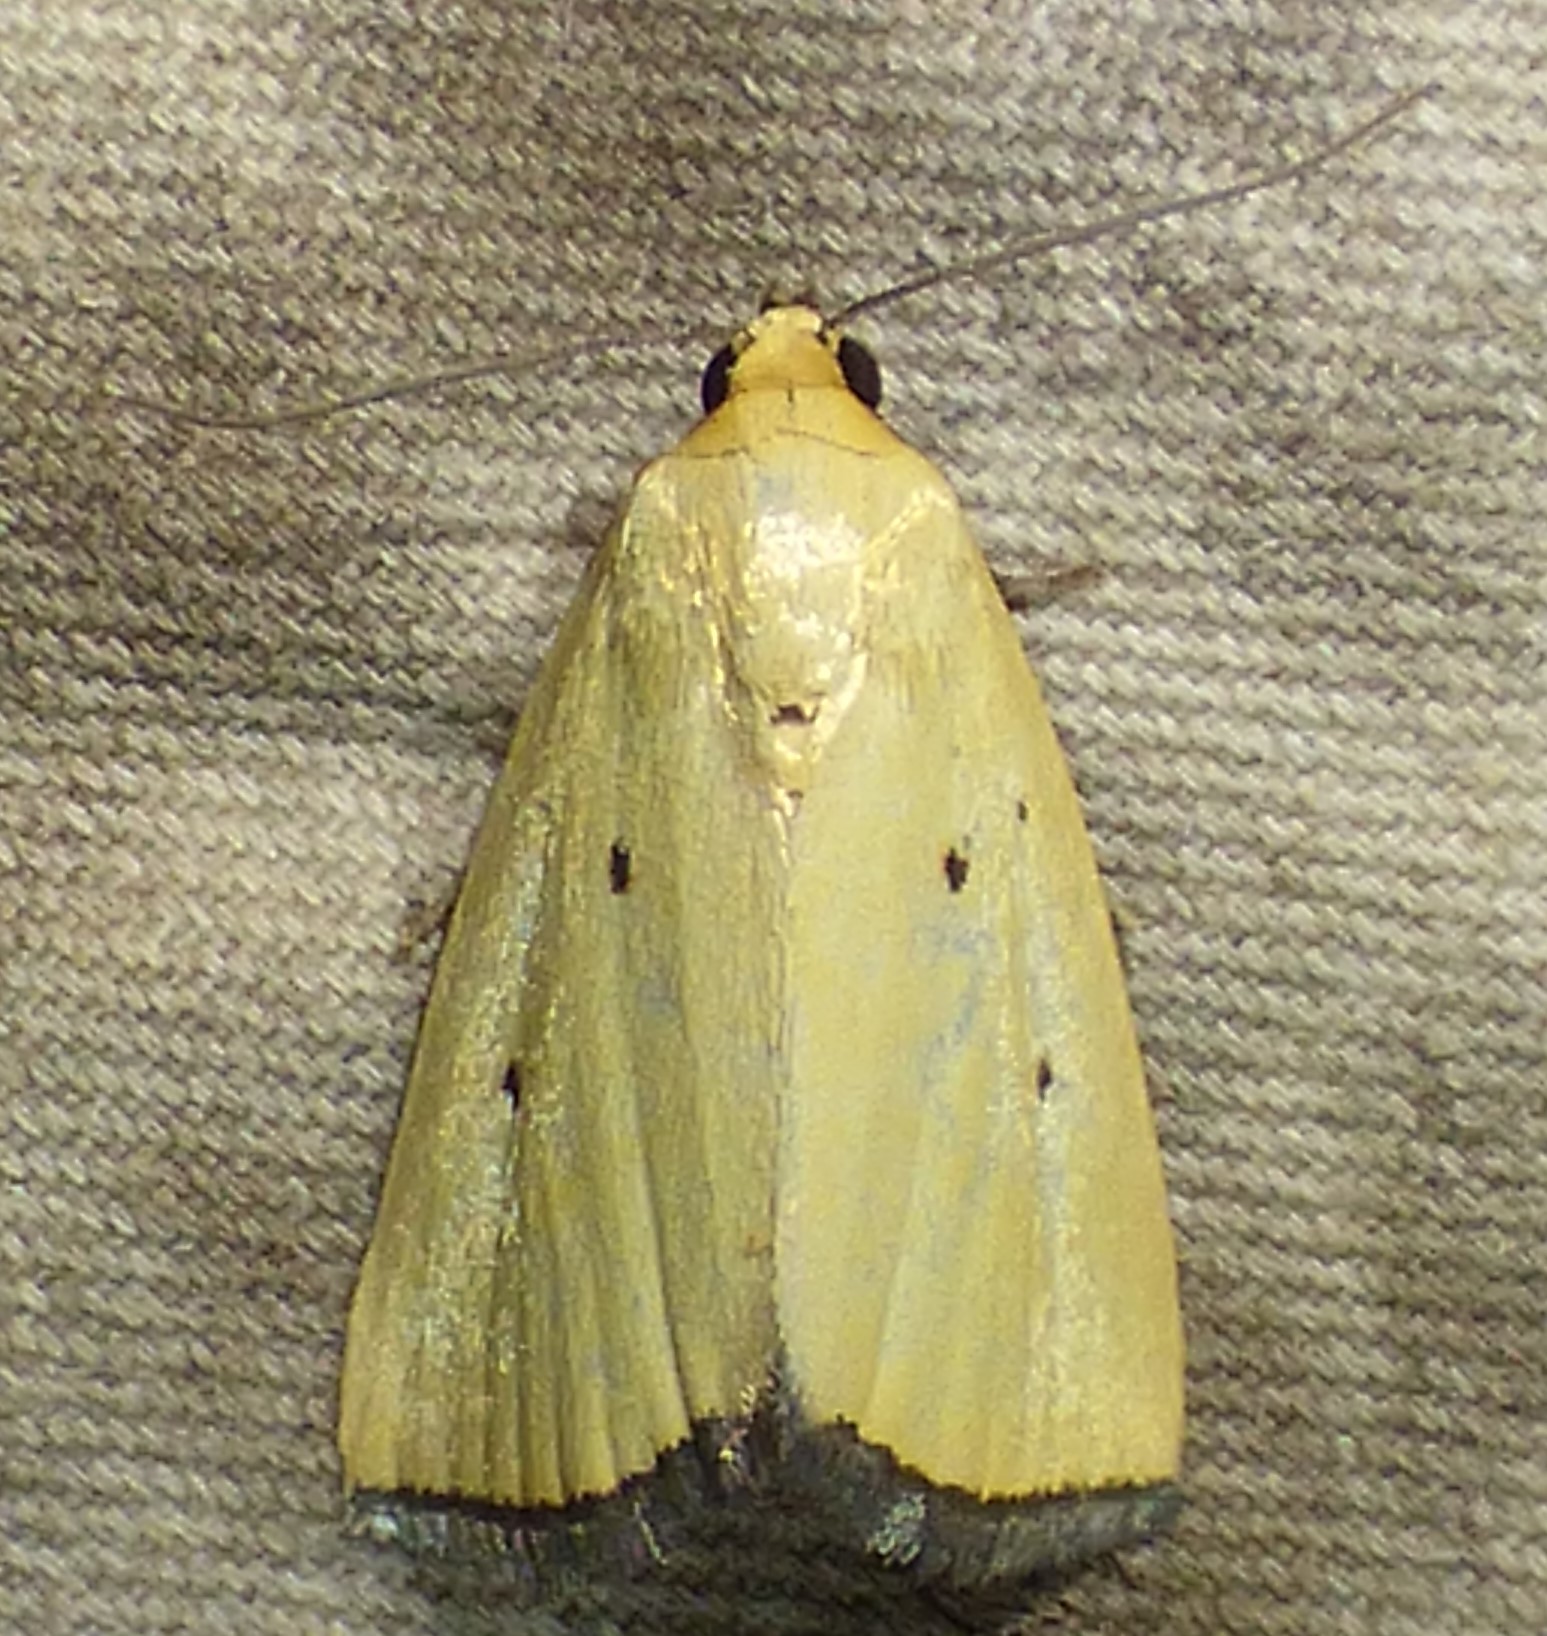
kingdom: Animalia
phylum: Arthropoda
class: Insecta
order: Lepidoptera
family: Noctuidae
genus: Marimatha
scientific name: Marimatha nigrofimbria
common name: Black-bordered lemon moth
